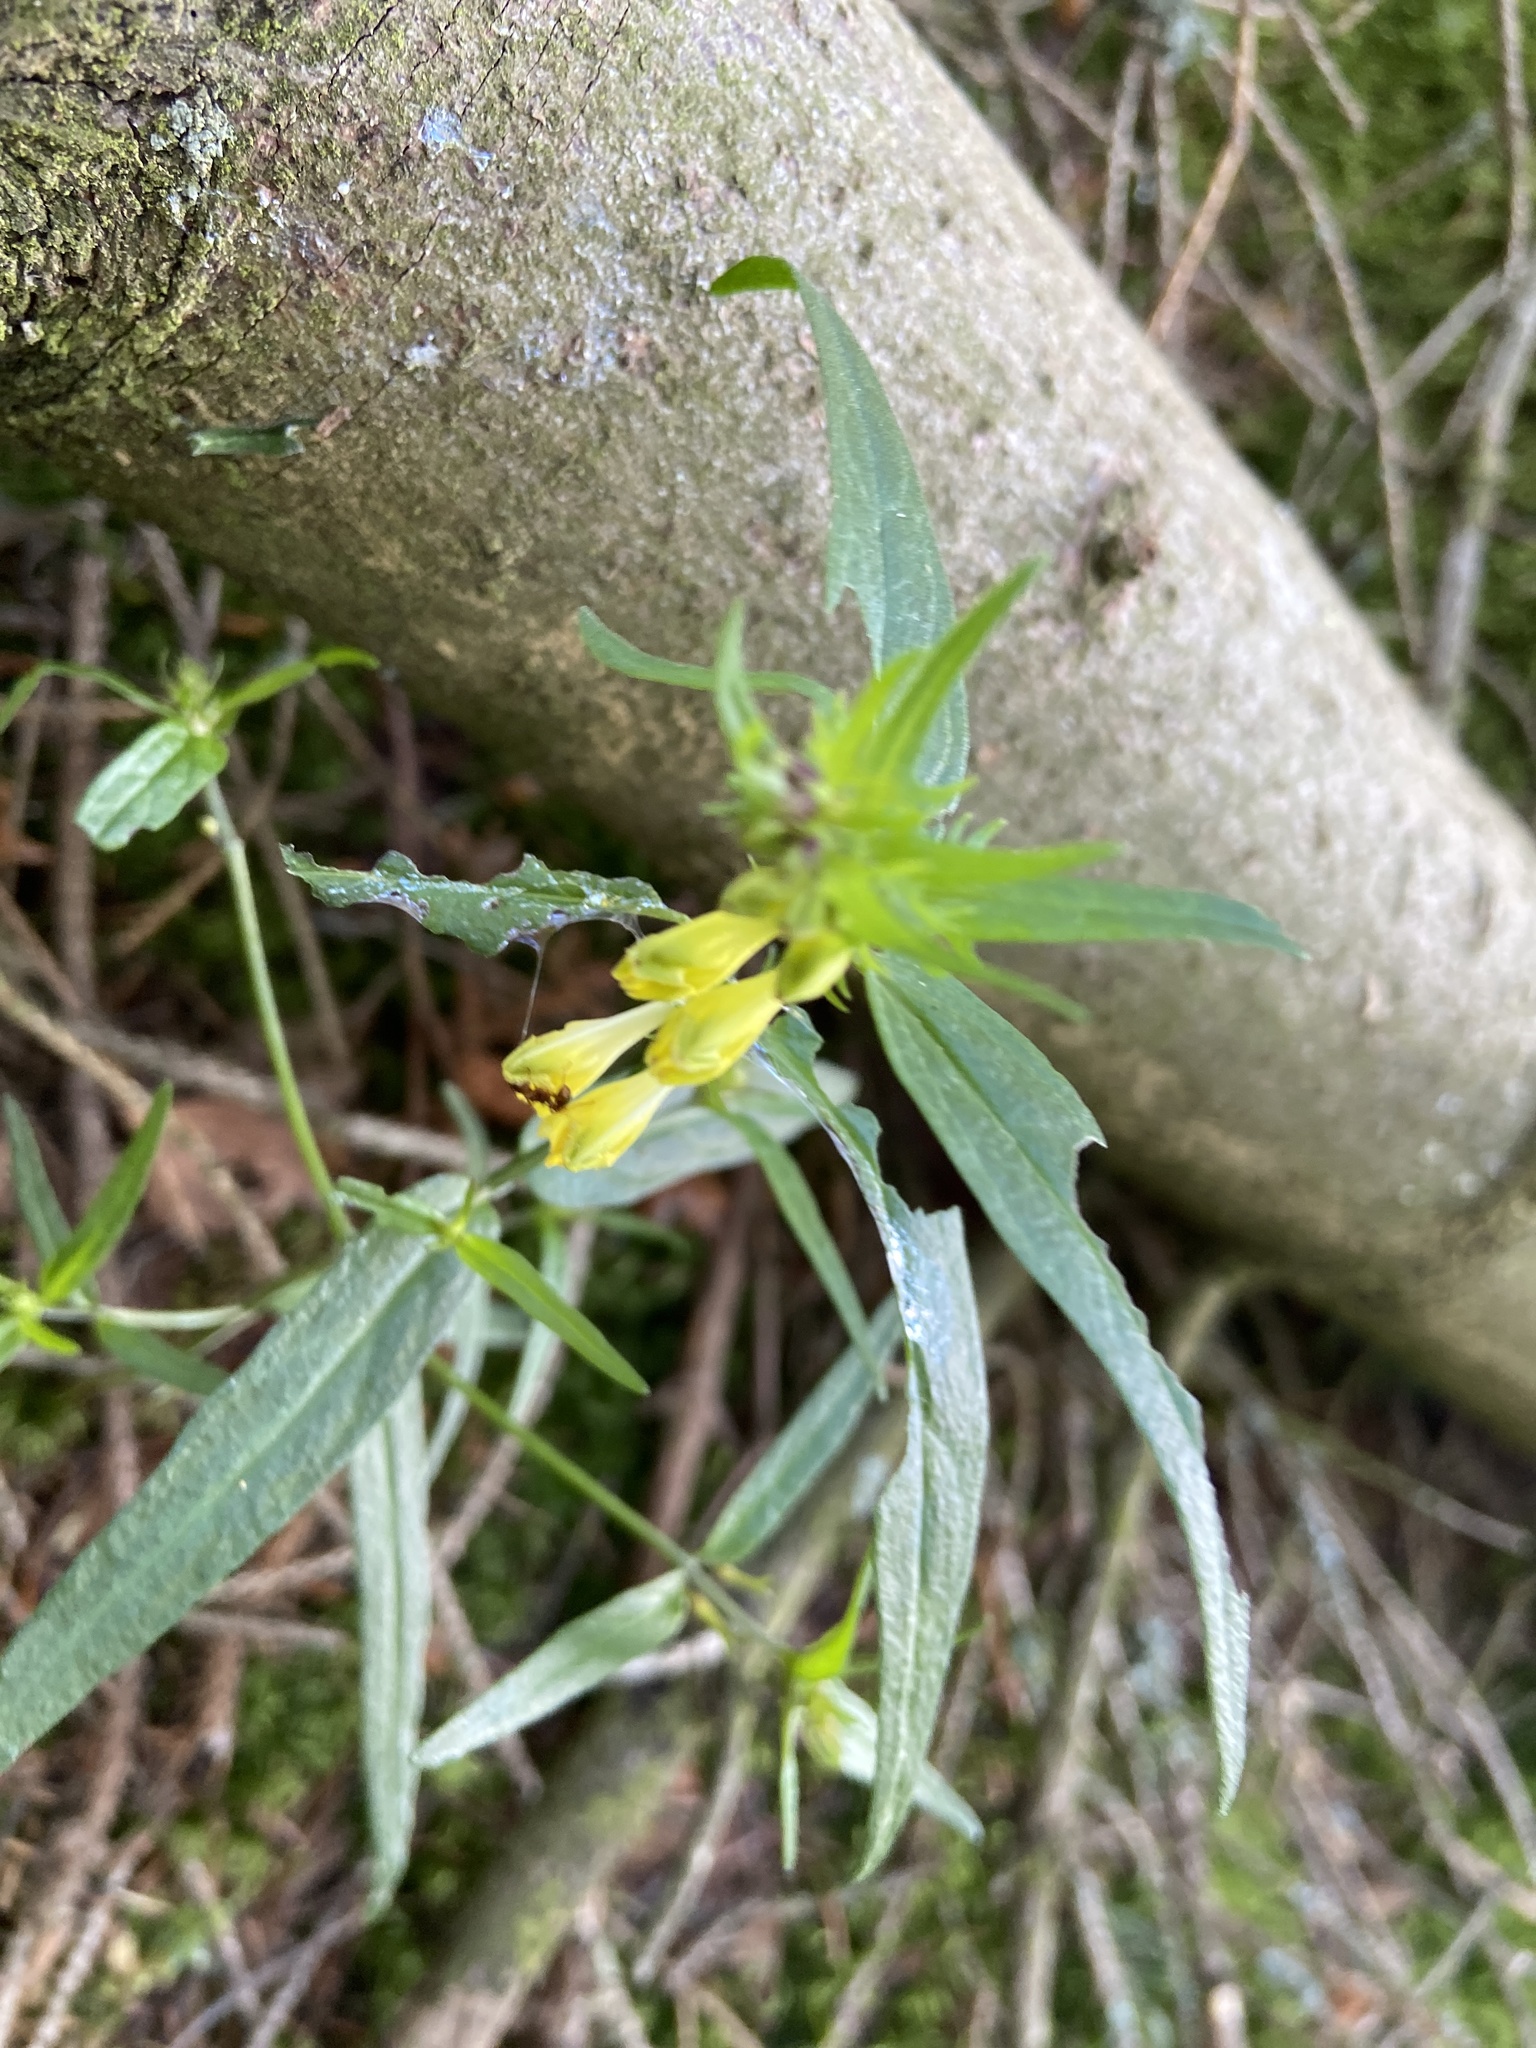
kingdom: Plantae
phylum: Tracheophyta
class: Magnoliopsida
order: Lamiales
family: Orobanchaceae
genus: Melampyrum
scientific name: Melampyrum pratense
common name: Common cow-wheat
